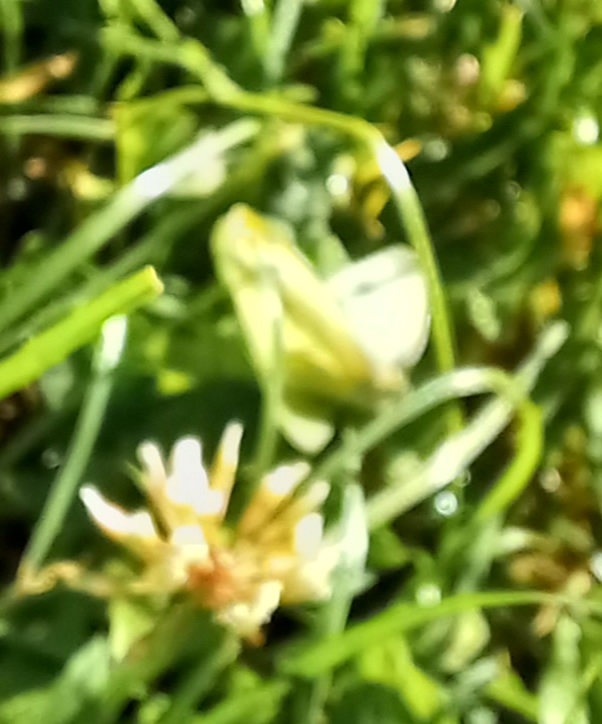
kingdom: Animalia
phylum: Arthropoda
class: Insecta
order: Lepidoptera
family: Pieridae
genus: Pieris
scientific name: Pieris rapae
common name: Small white
